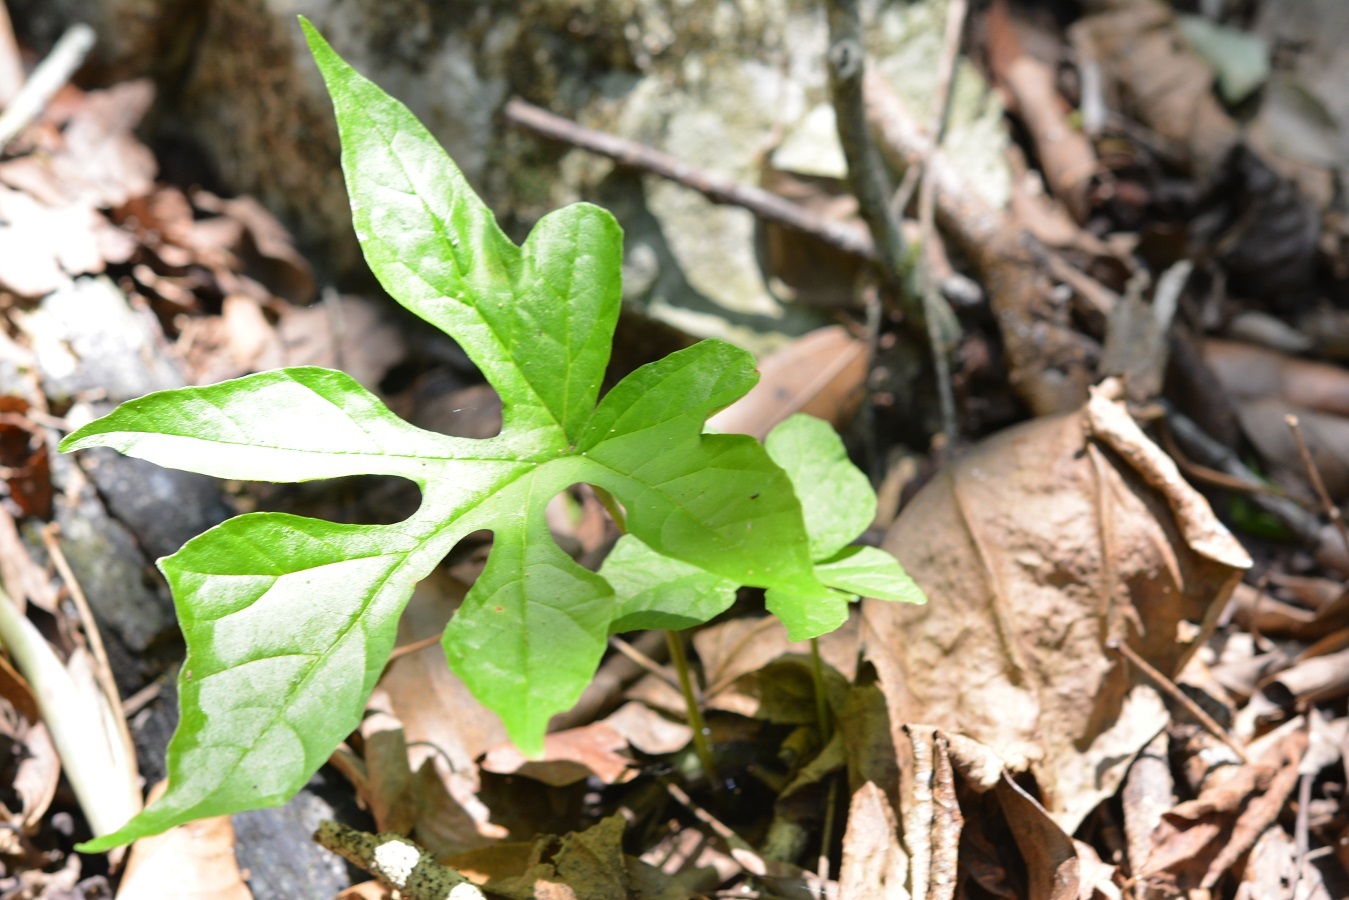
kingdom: Plantae
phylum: Tracheophyta
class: Magnoliopsida
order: Rosales
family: Moraceae
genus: Dorstenia
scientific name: Dorstenia contrajerva
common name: Tusilla
